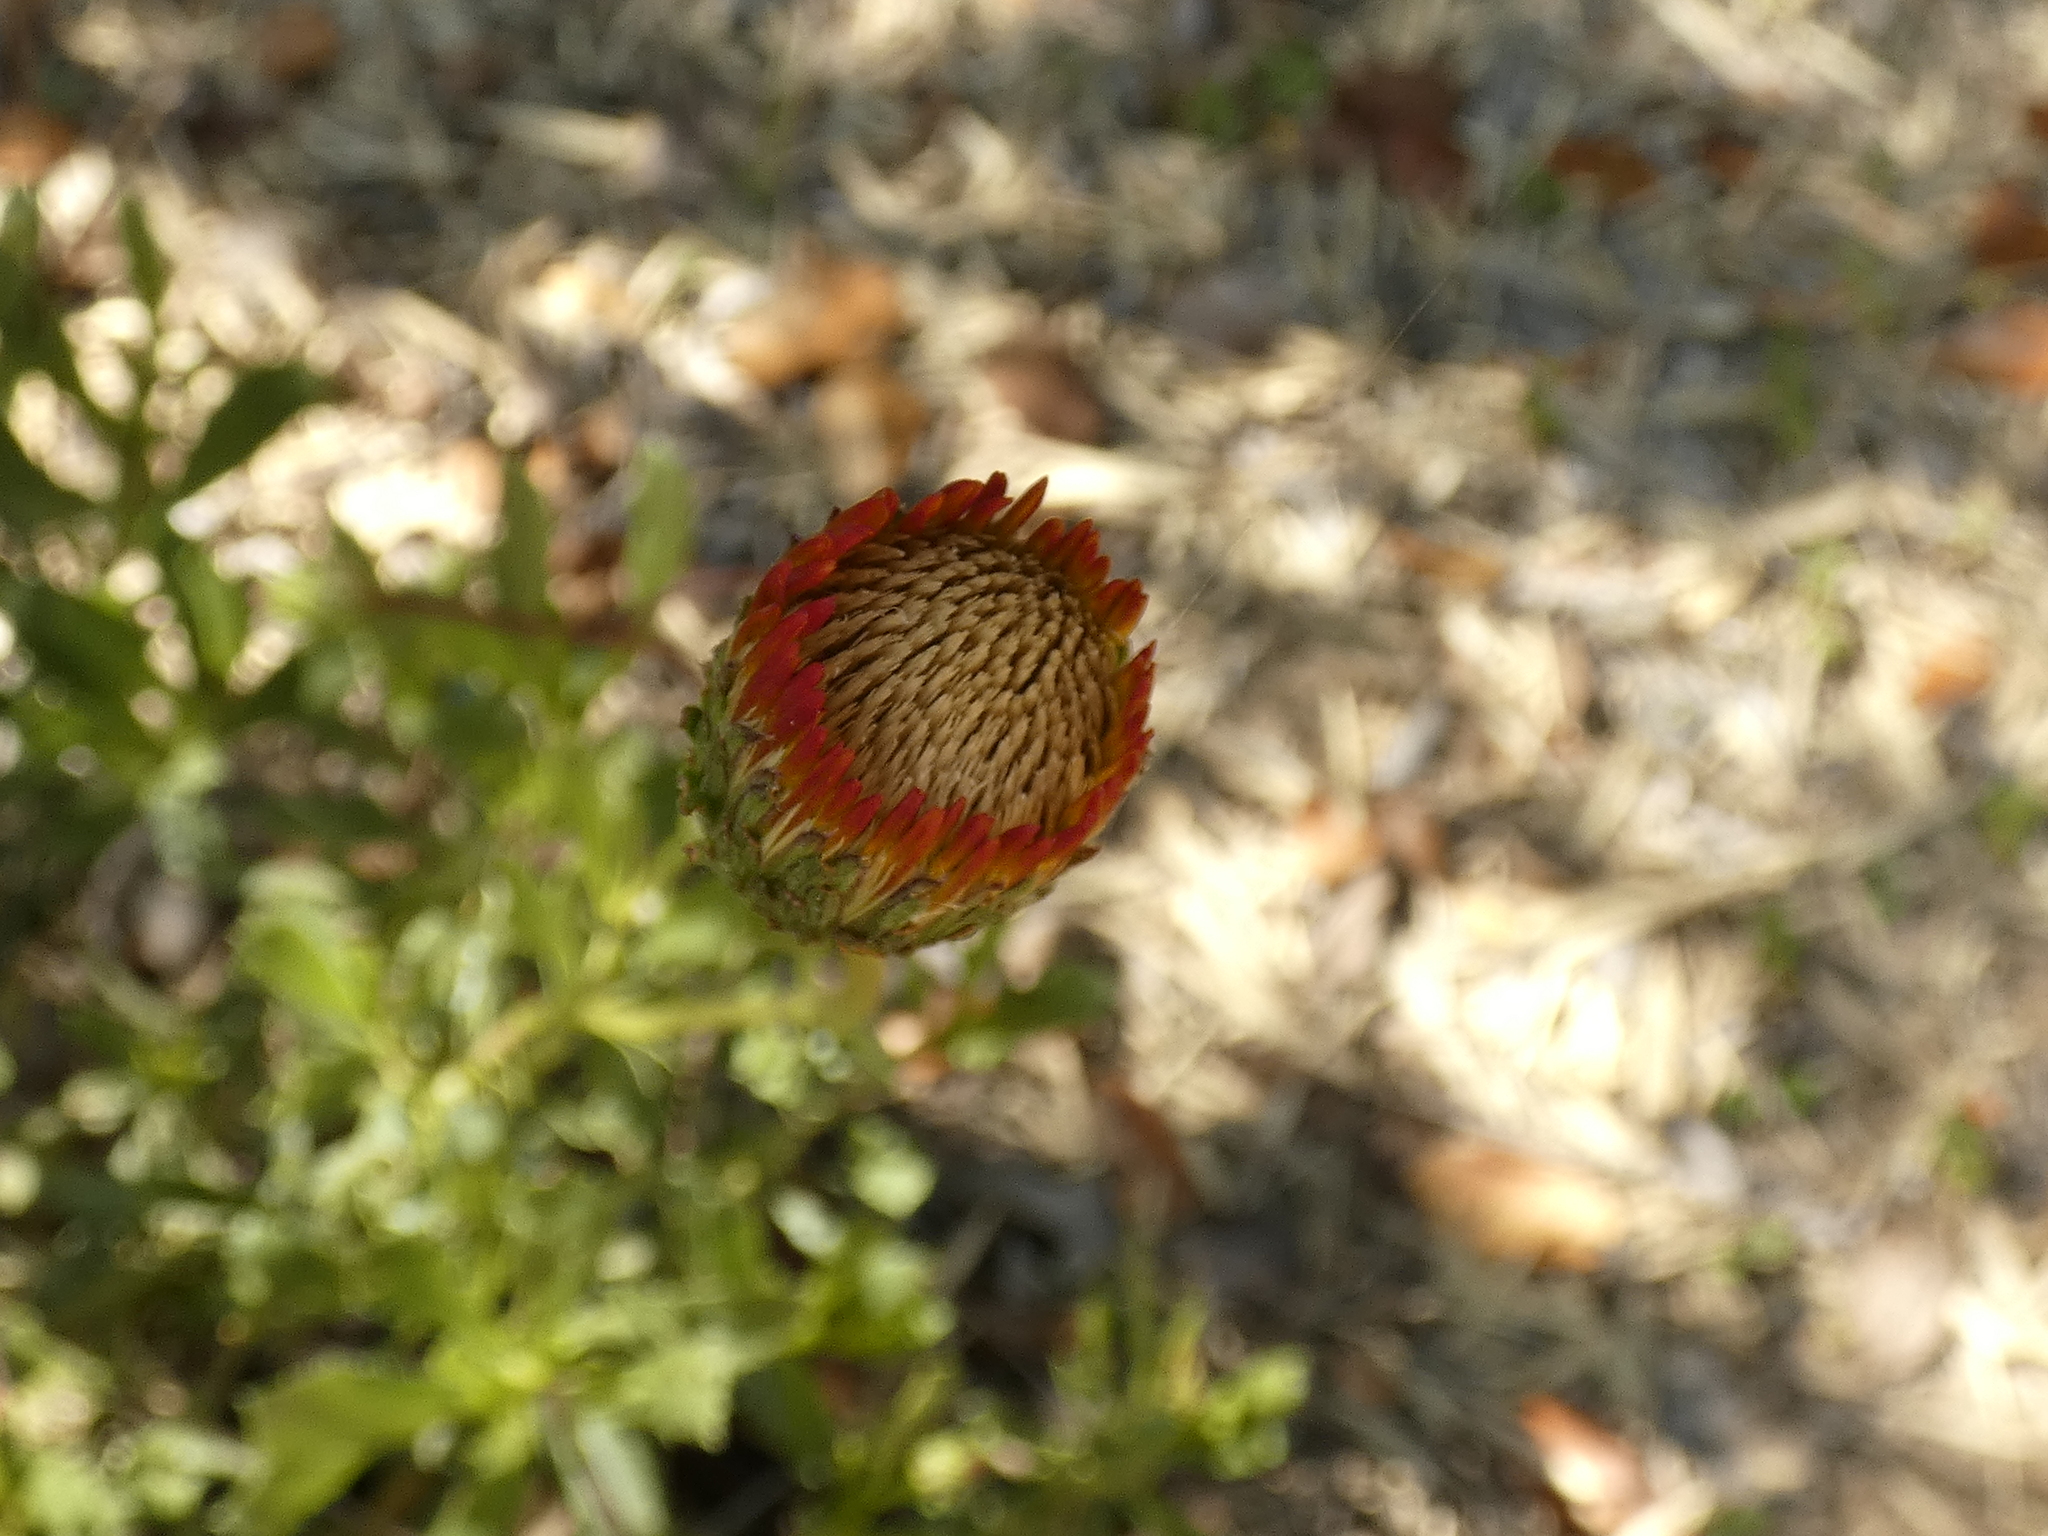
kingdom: Plantae
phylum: Tracheophyta
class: Magnoliopsida
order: Asterales
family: Asteraceae
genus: Haplopappus
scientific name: Haplopappus macrocephalus
